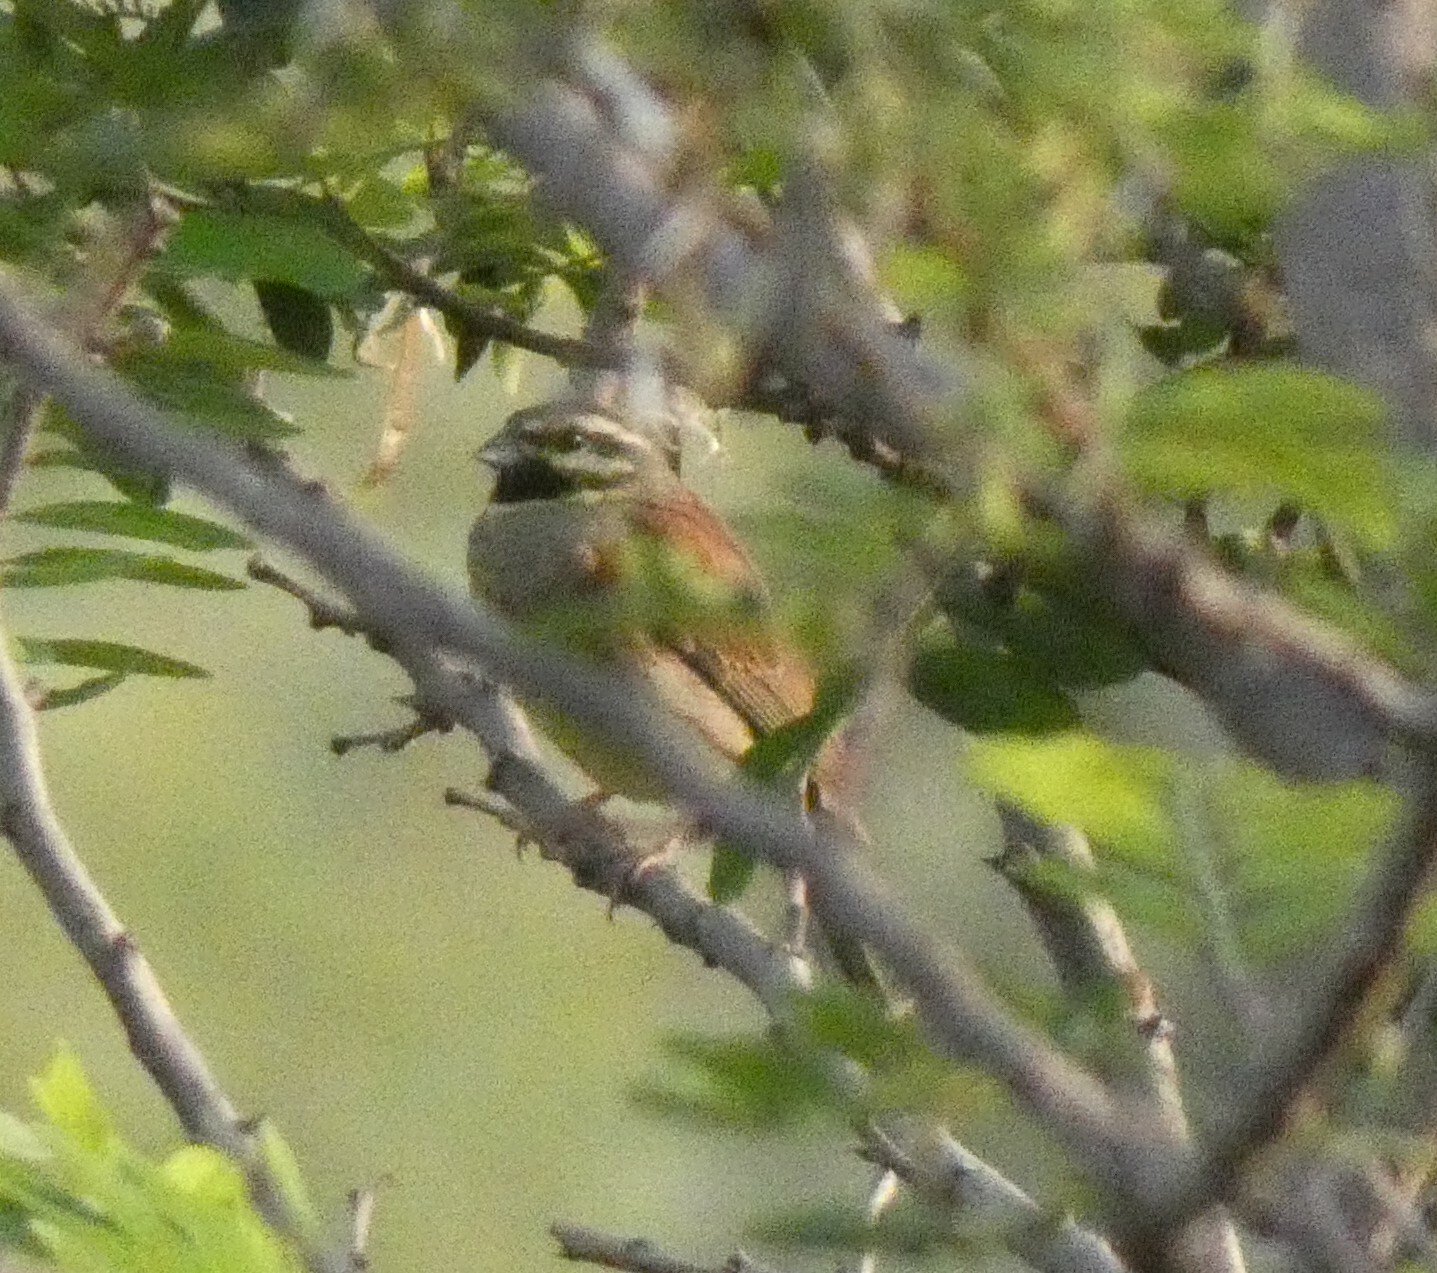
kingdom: Animalia
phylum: Chordata
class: Aves
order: Passeriformes
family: Emberizidae
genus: Emberiza
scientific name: Emberiza cirlus
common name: Cirl bunting
